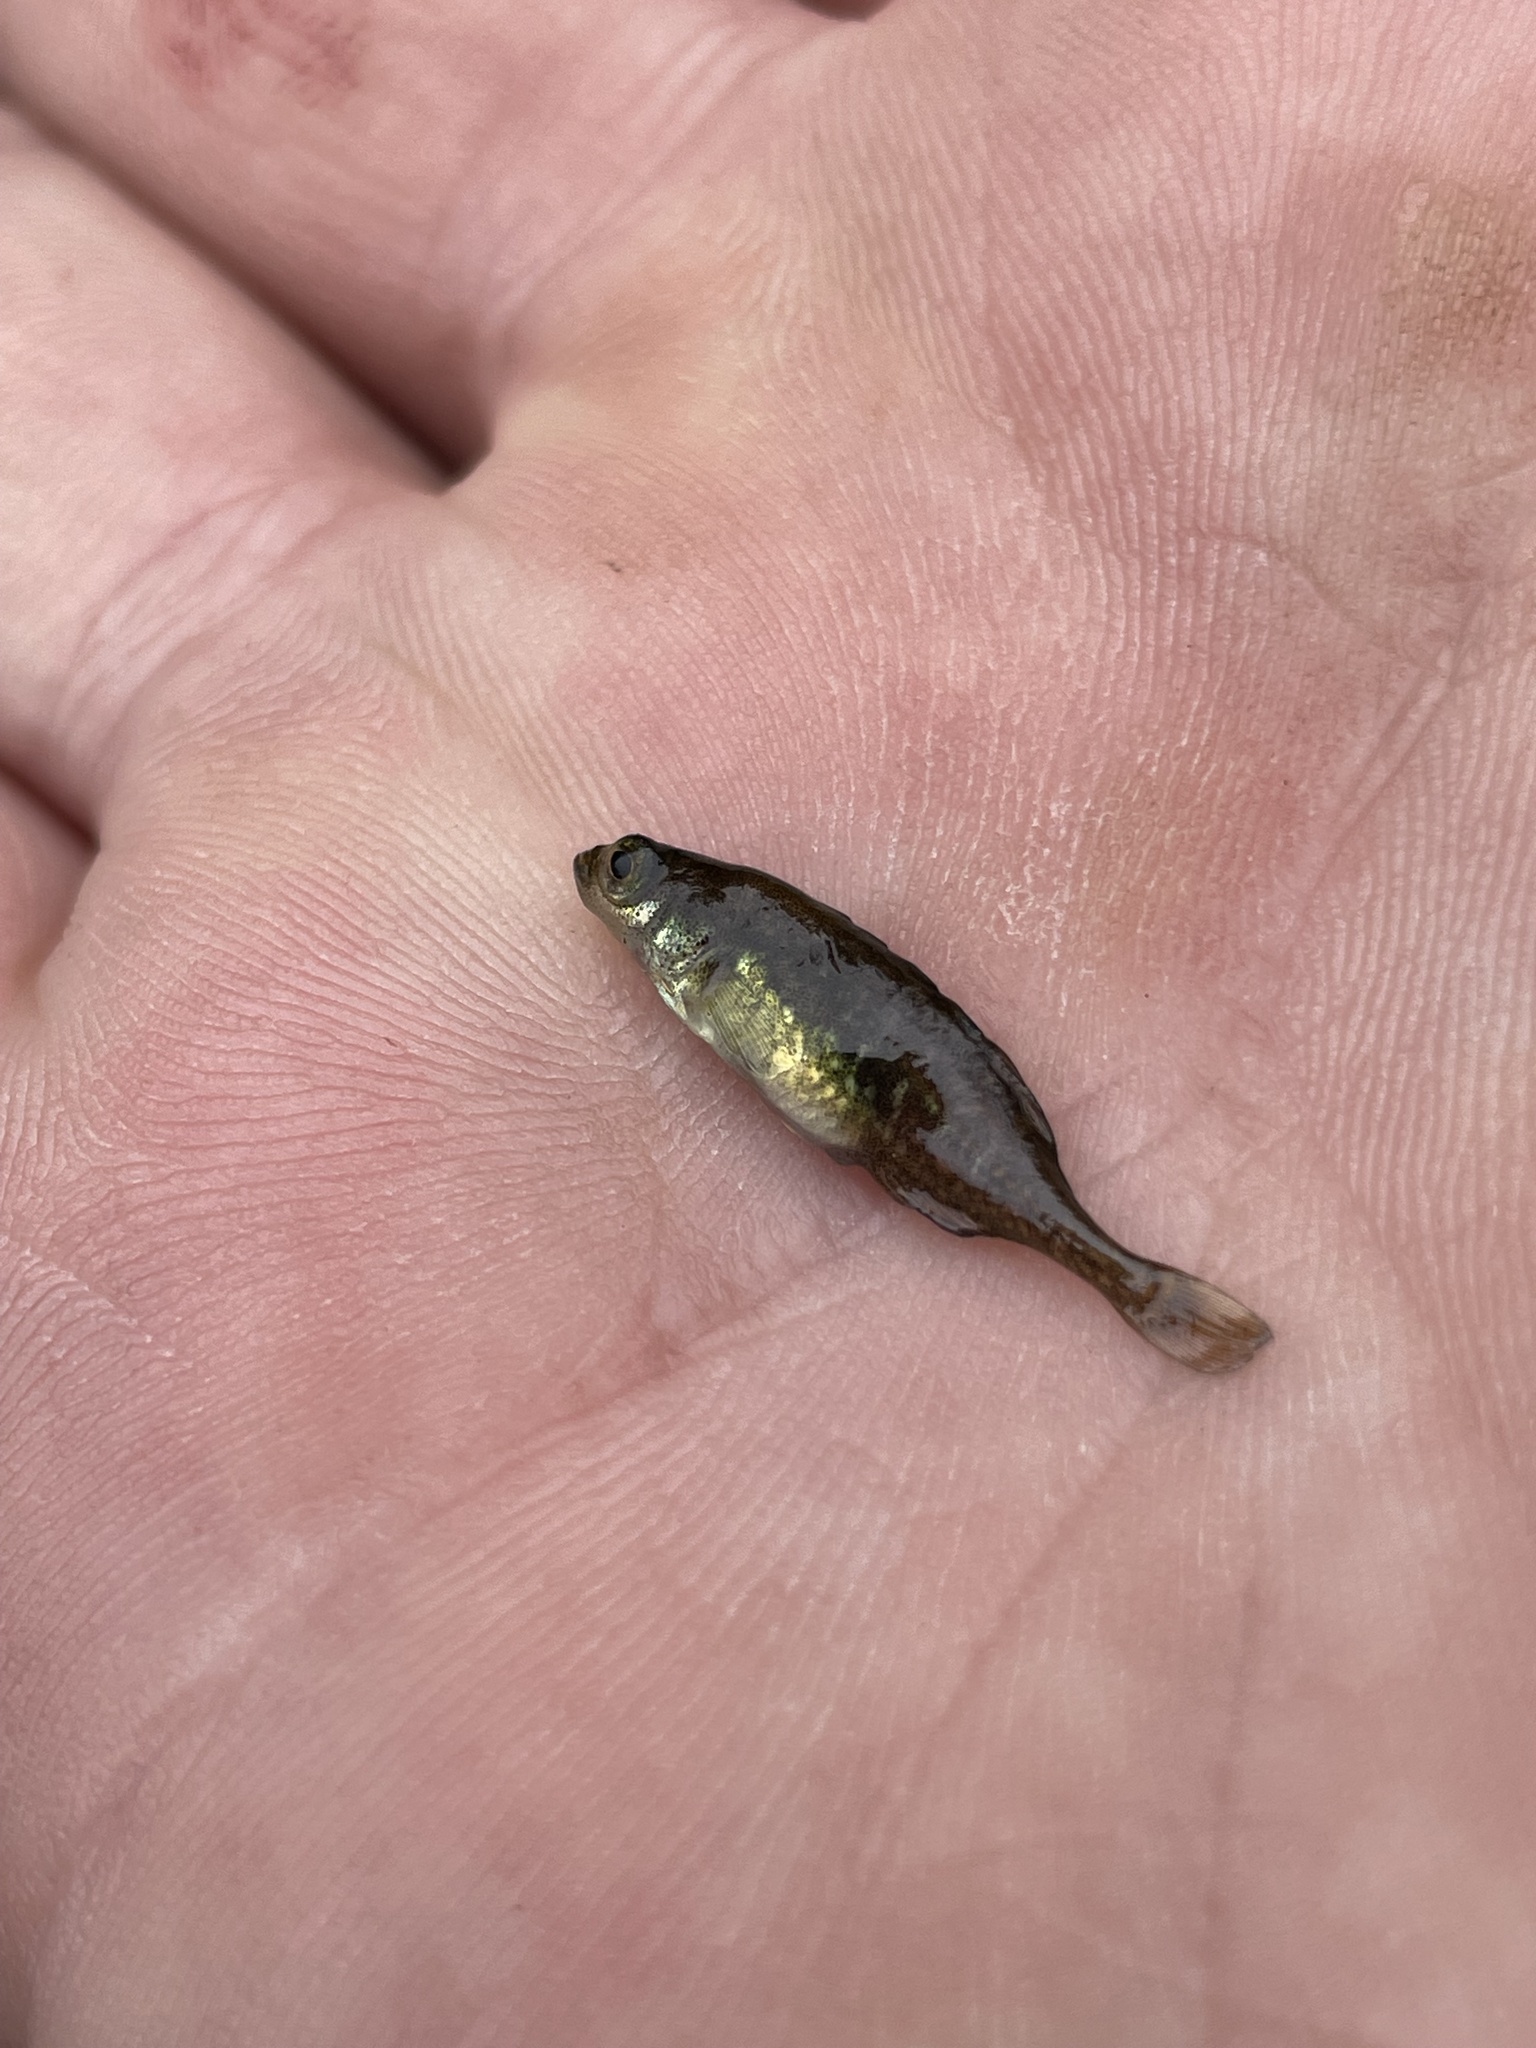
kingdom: Animalia
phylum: Chordata
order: Gasterosteiformes
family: Gasterosteidae
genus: Culaea
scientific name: Culaea inconstans
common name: Brook stickleback
